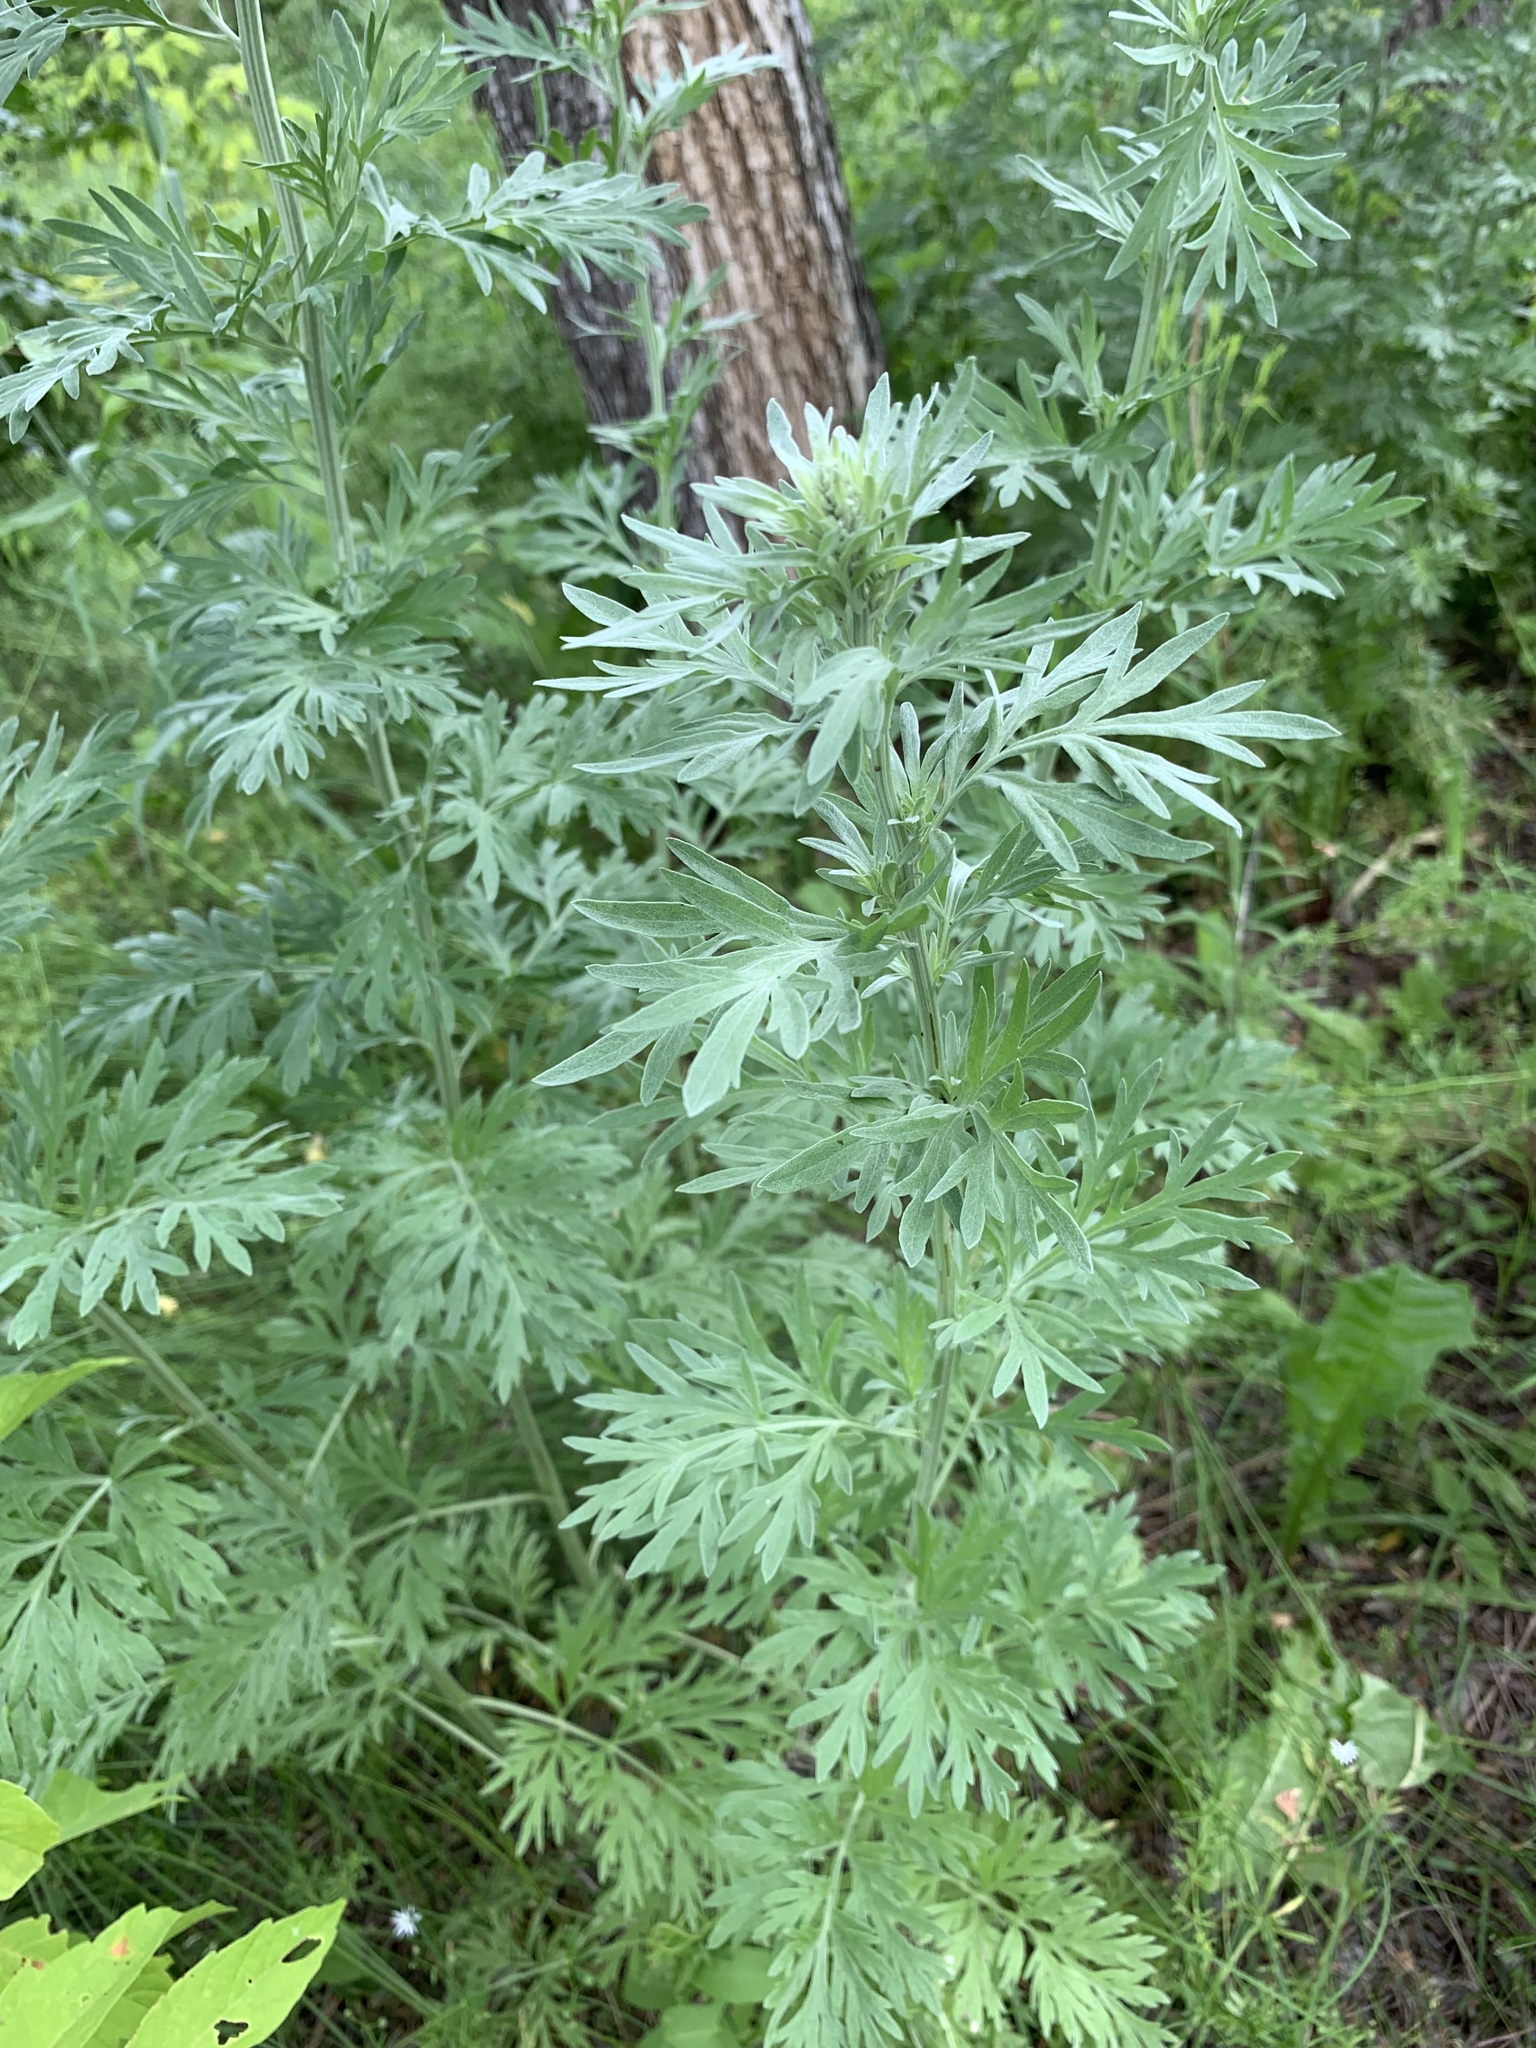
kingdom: Plantae
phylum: Tracheophyta
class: Magnoliopsida
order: Asterales
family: Asteraceae
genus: Artemisia
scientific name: Artemisia absinthium
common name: Wormwood
